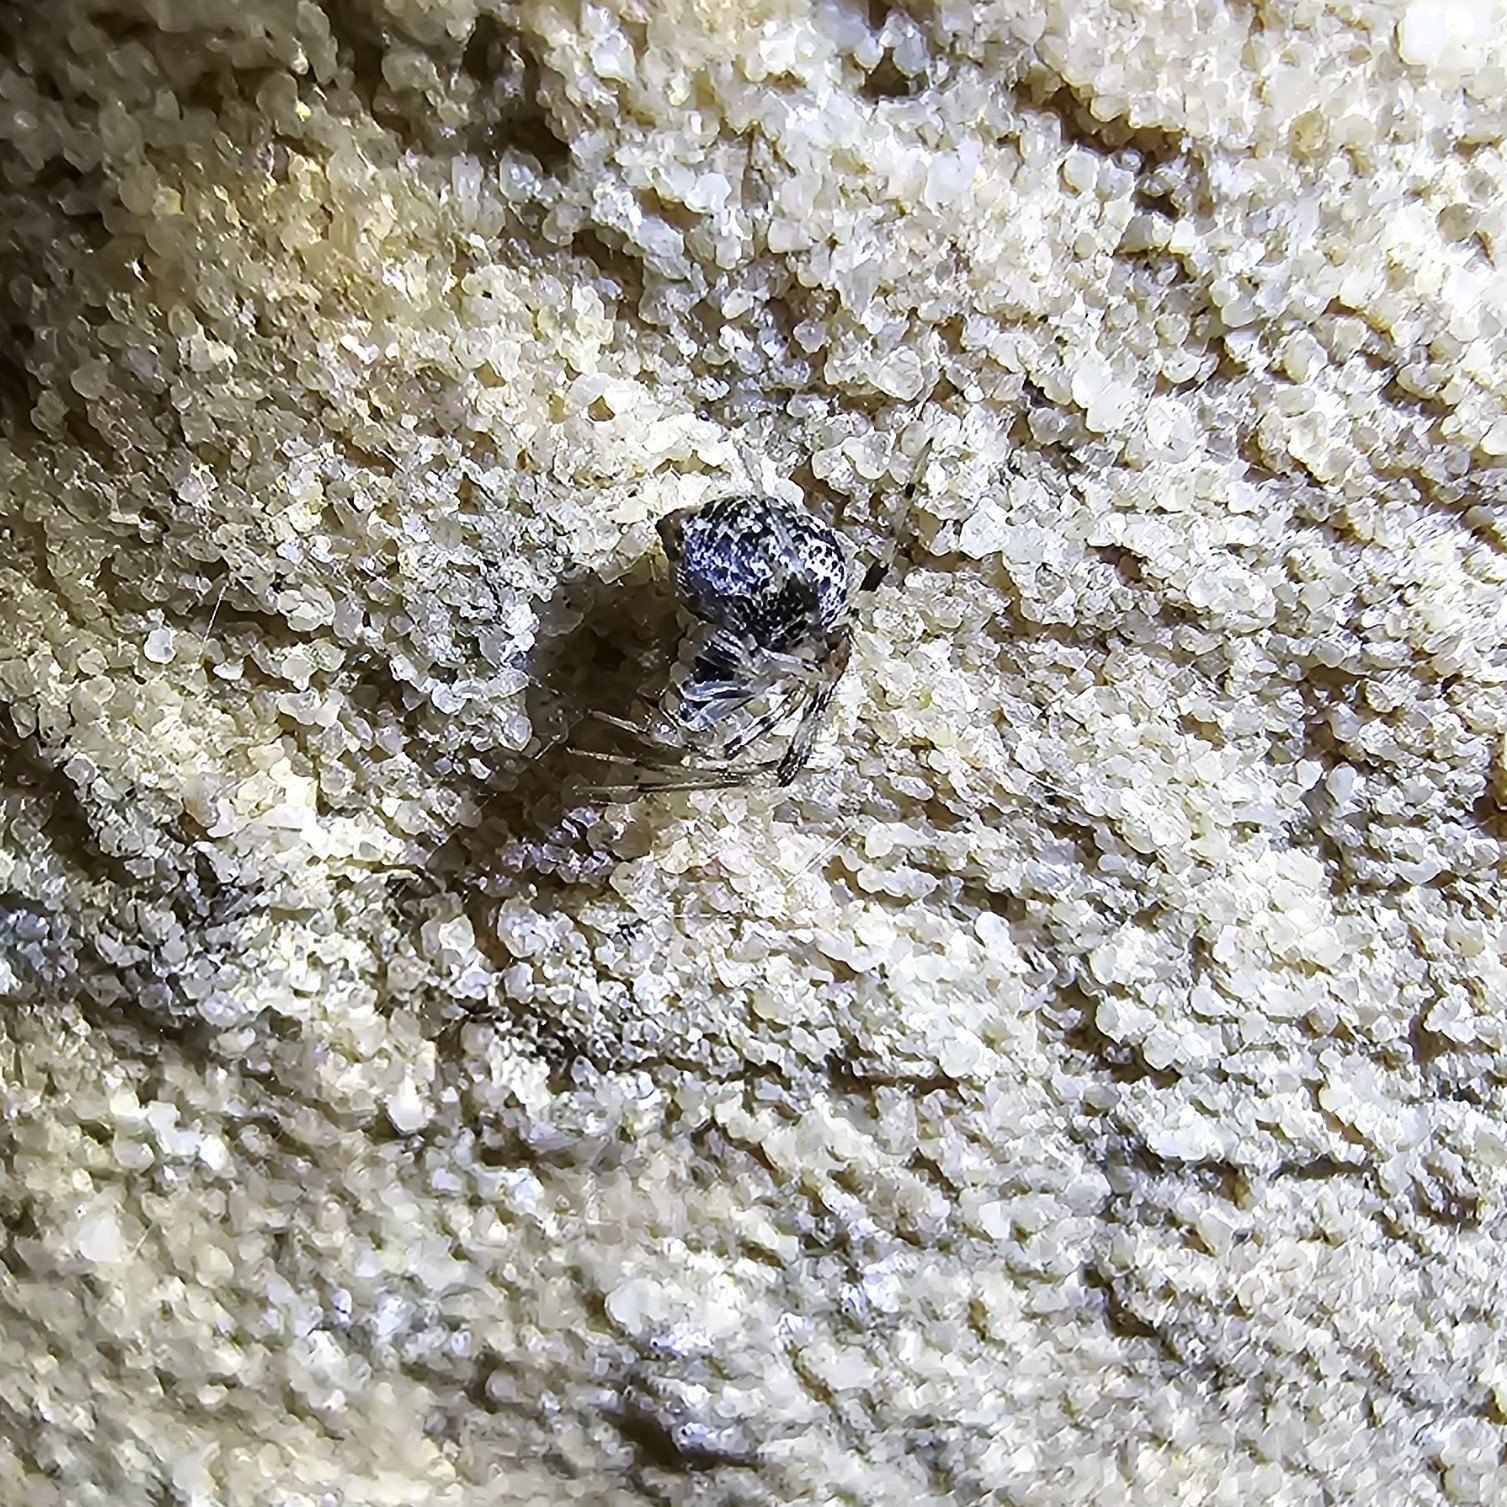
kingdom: Animalia
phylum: Arthropoda
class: Arachnida
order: Araneae
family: Theridiidae
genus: Parasteatoda
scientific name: Parasteatoda tepidariorum
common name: Common house spider
